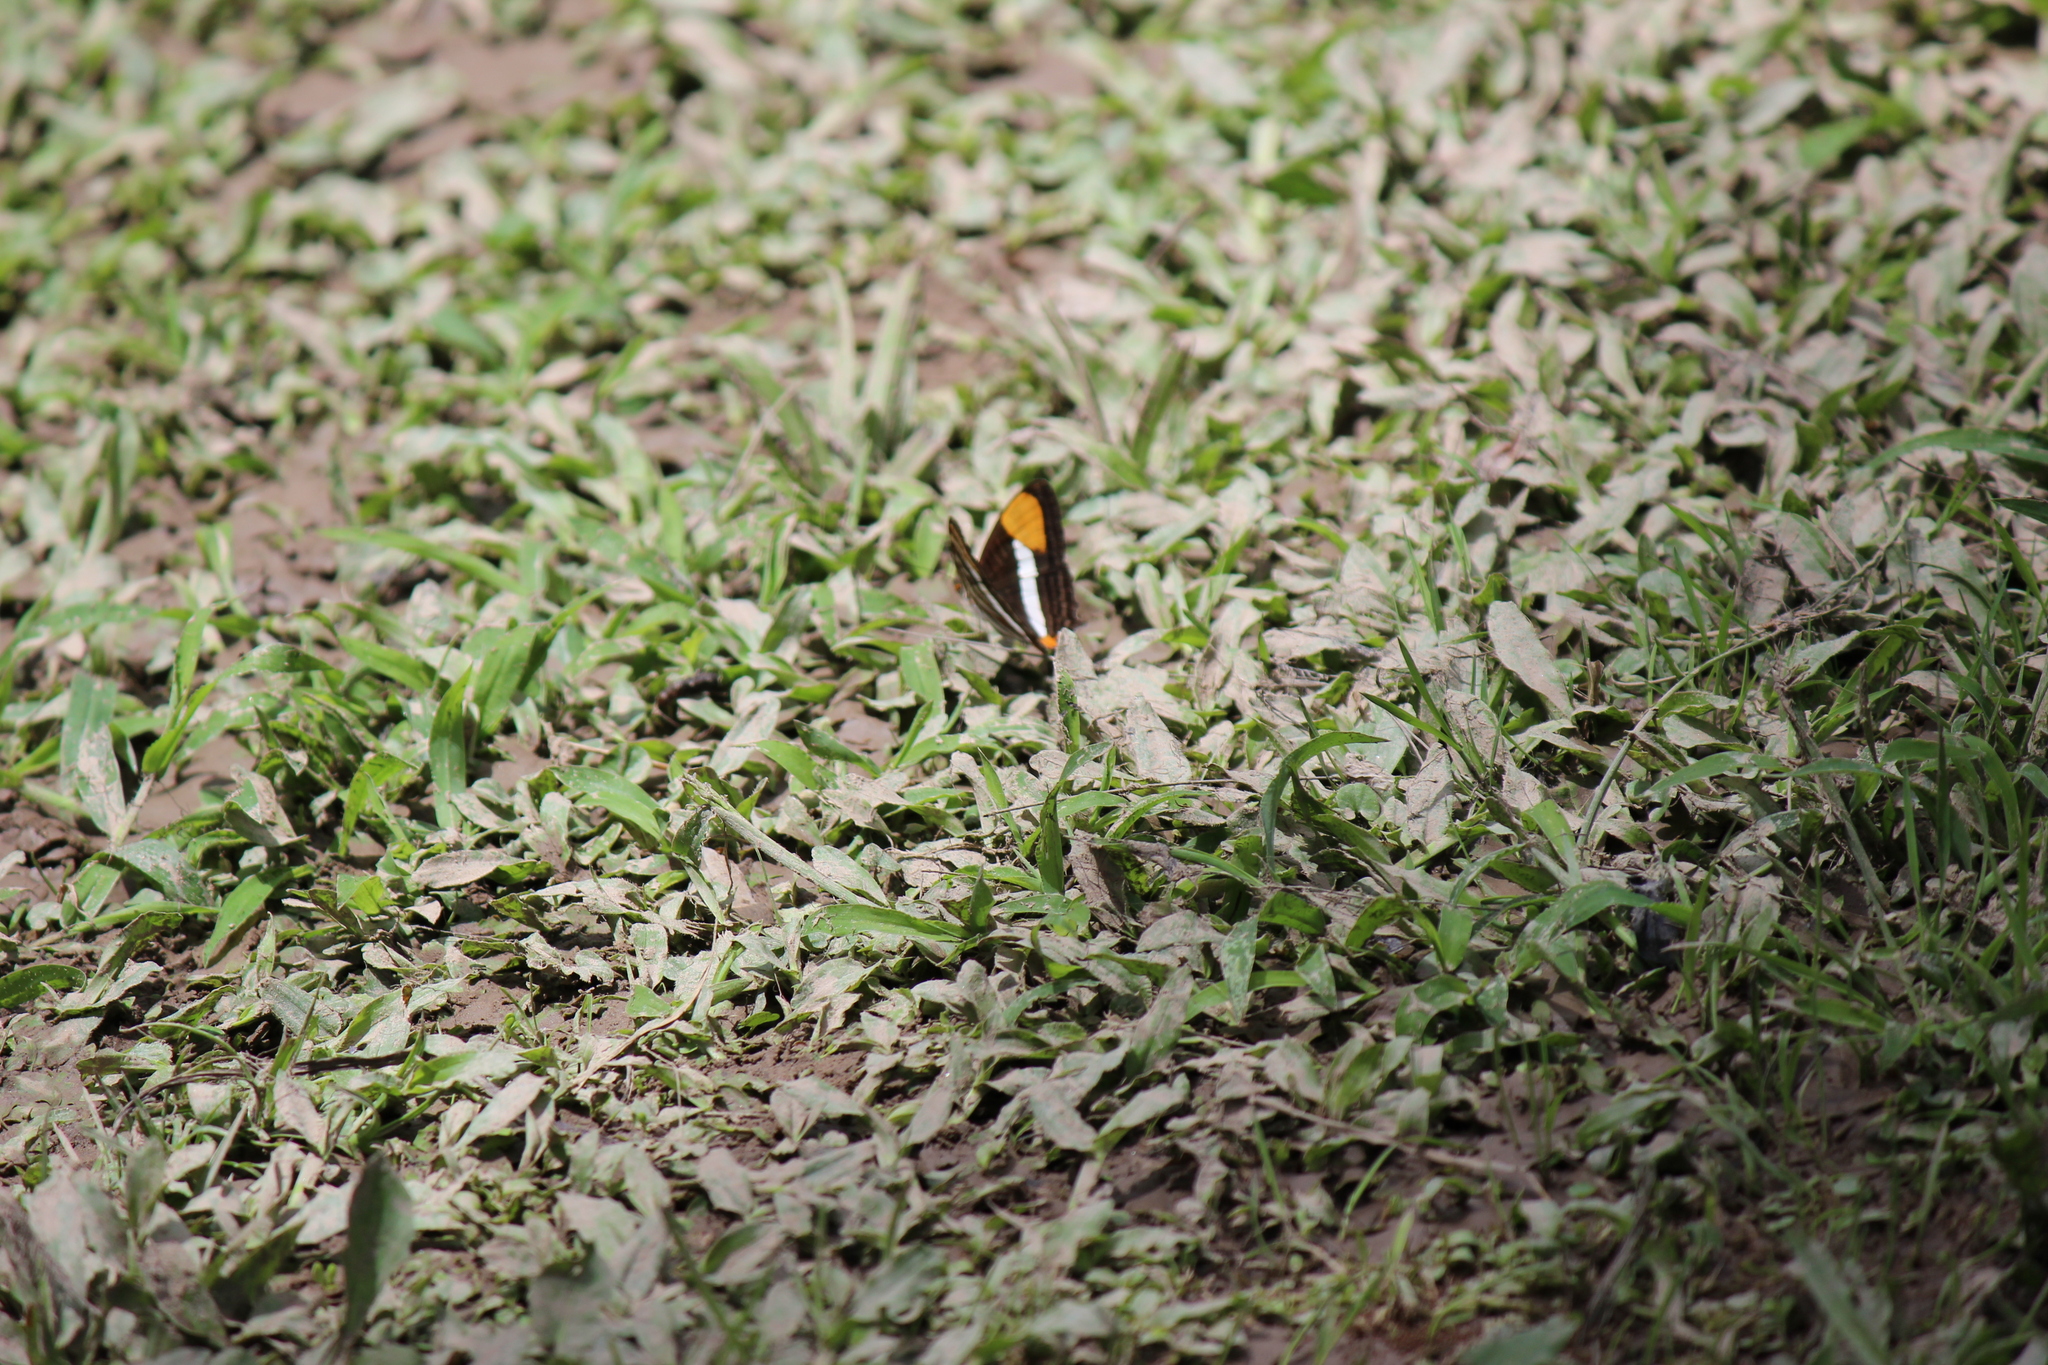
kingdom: Animalia
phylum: Arthropoda
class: Insecta
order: Lepidoptera
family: Nymphalidae
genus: Limenitis
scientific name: Limenitis syma
